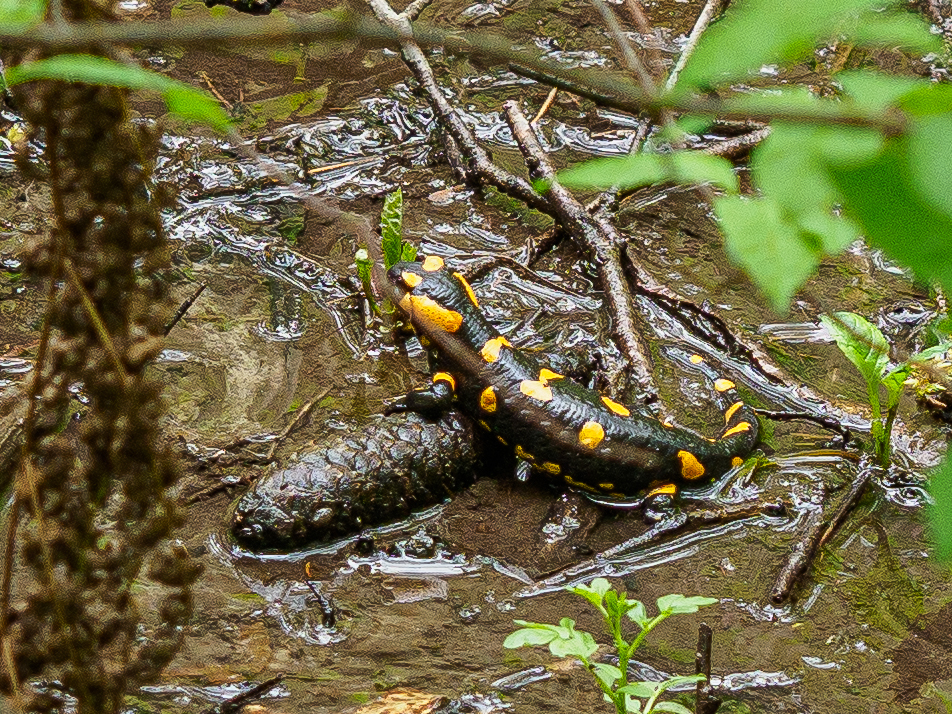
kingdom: Animalia
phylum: Chordata
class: Amphibia
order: Caudata
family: Salamandridae
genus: Salamandra
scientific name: Salamandra salamandra
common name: Fire salamander
